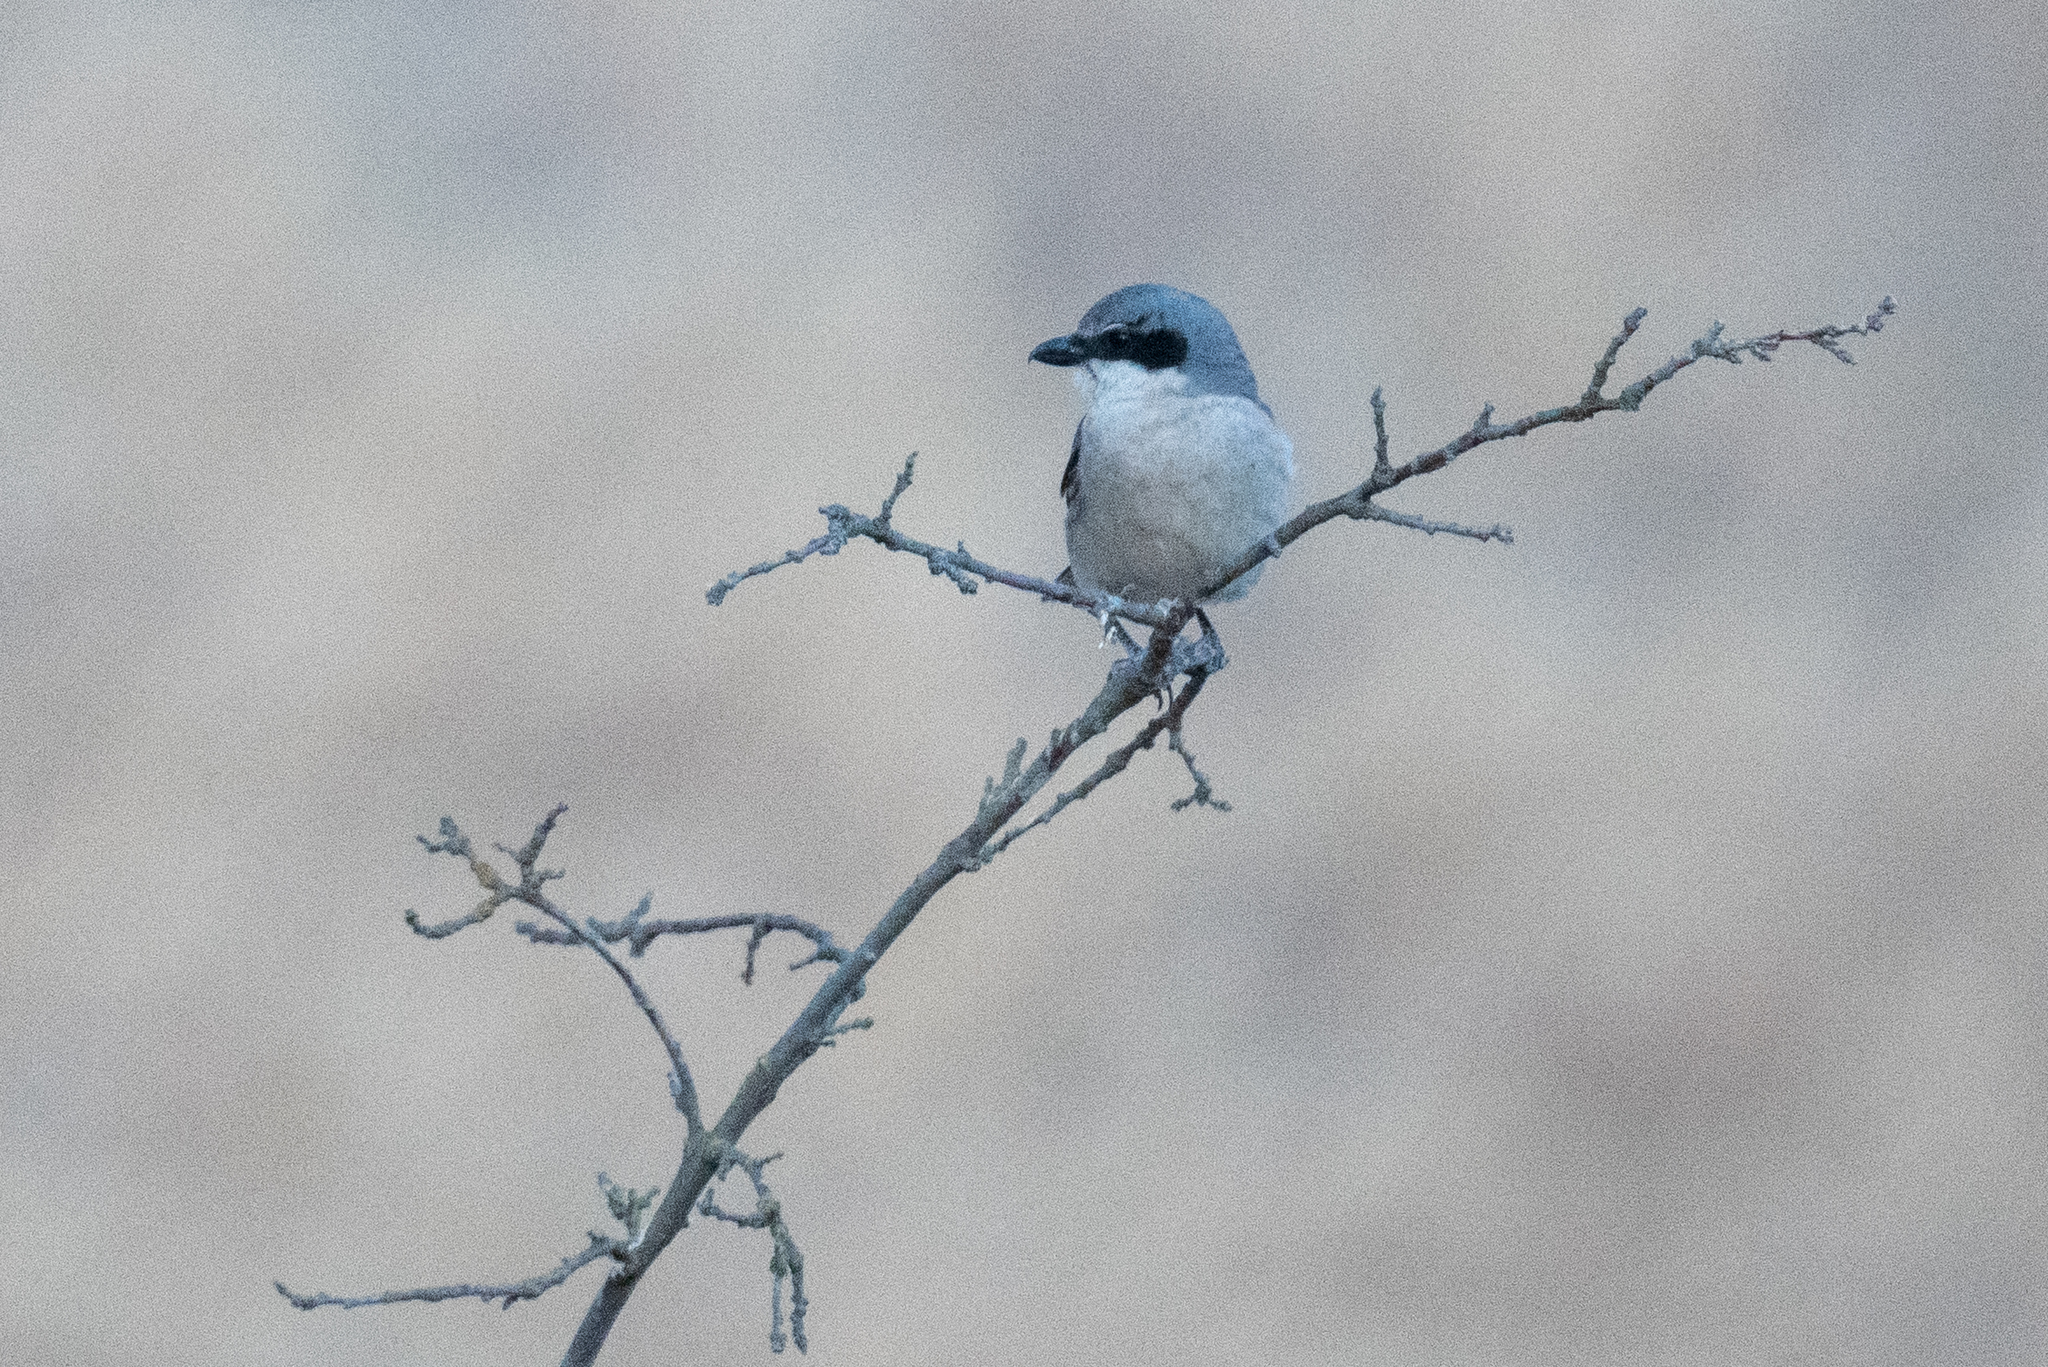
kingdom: Animalia
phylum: Chordata
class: Aves
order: Passeriformes
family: Laniidae
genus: Lanius
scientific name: Lanius ludovicianus
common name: Loggerhead shrike
